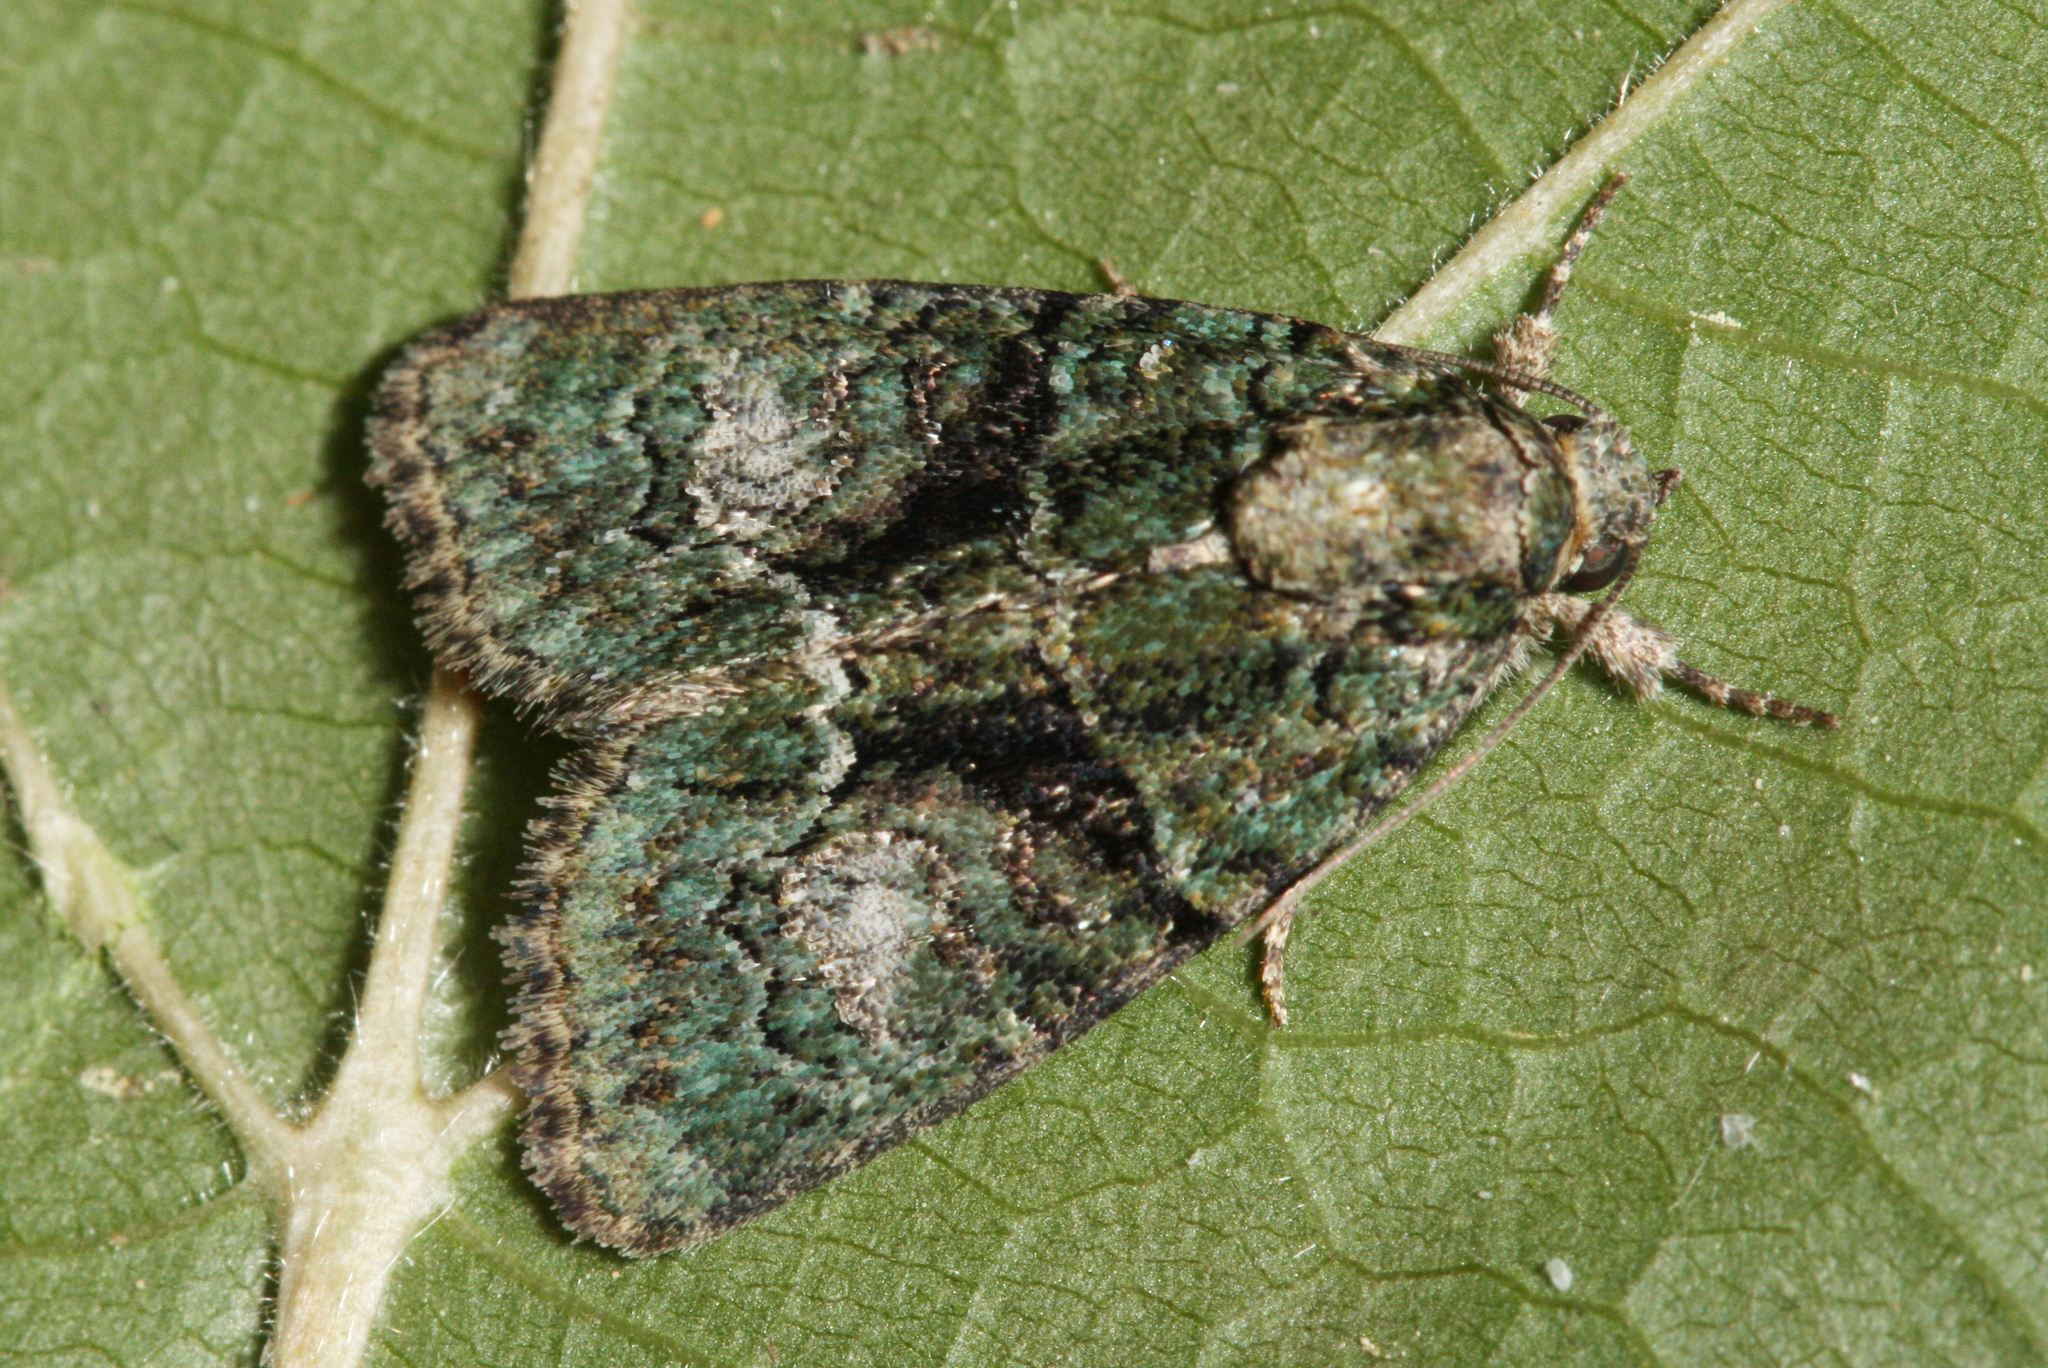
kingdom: Animalia
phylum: Arthropoda
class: Insecta
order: Lepidoptera
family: Noctuidae
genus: Cryphia
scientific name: Cryphia algae
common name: Tree-lichen beauty
